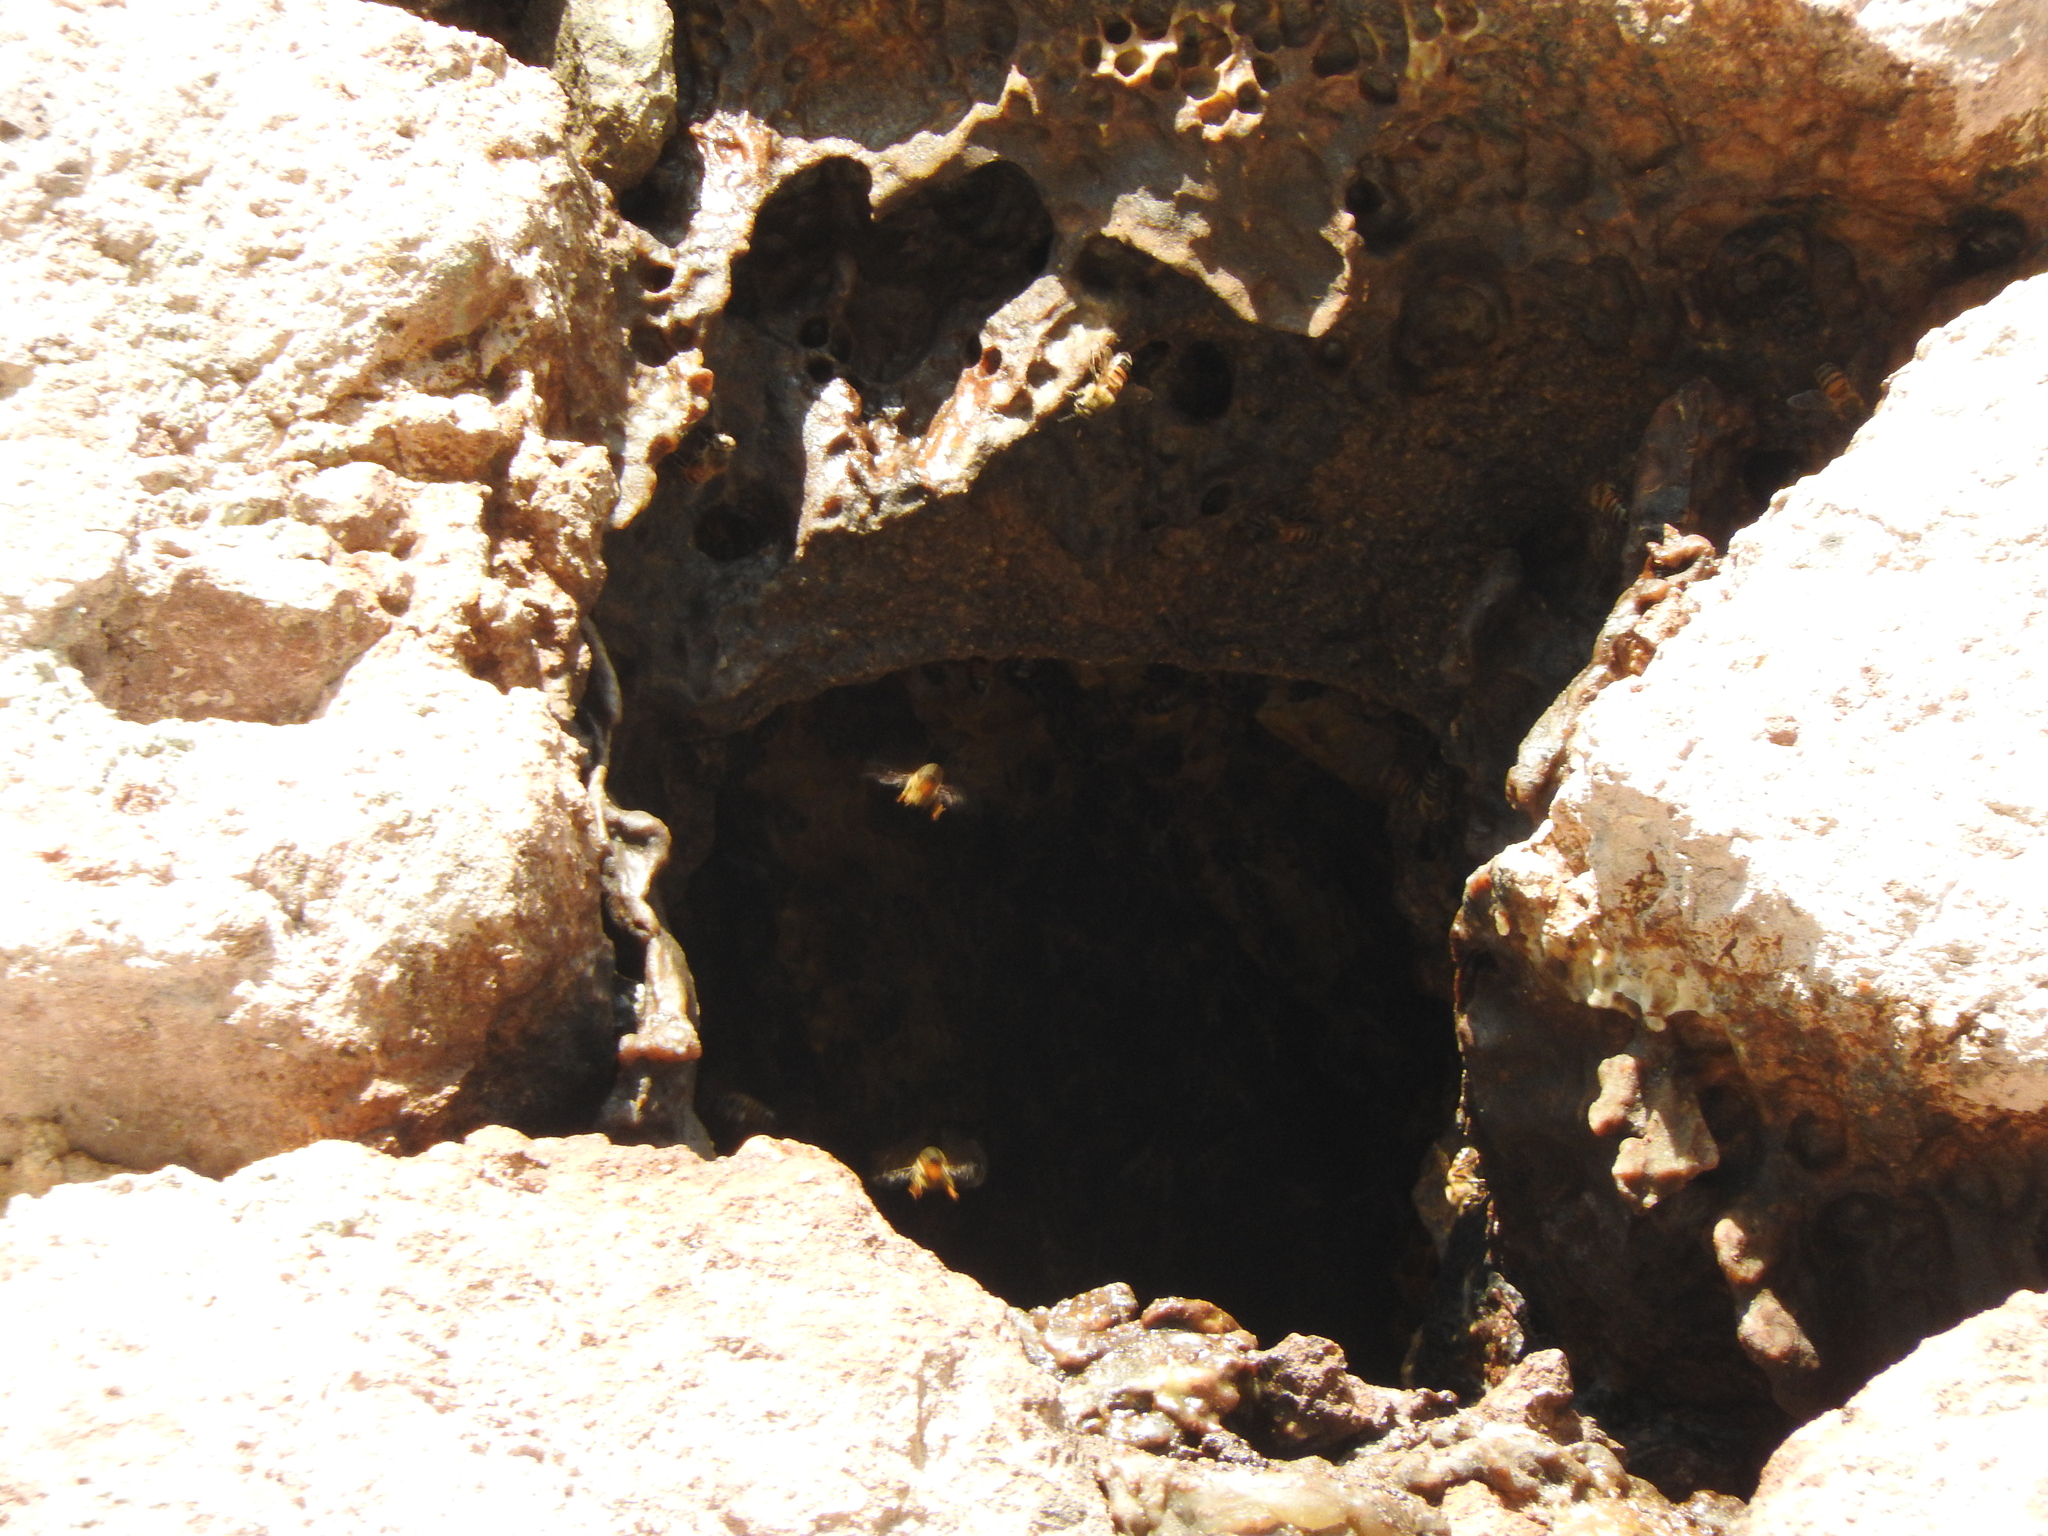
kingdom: Animalia
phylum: Arthropoda
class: Insecta
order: Hymenoptera
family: Apidae
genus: Apis
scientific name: Apis mellifera
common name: Honey bee
